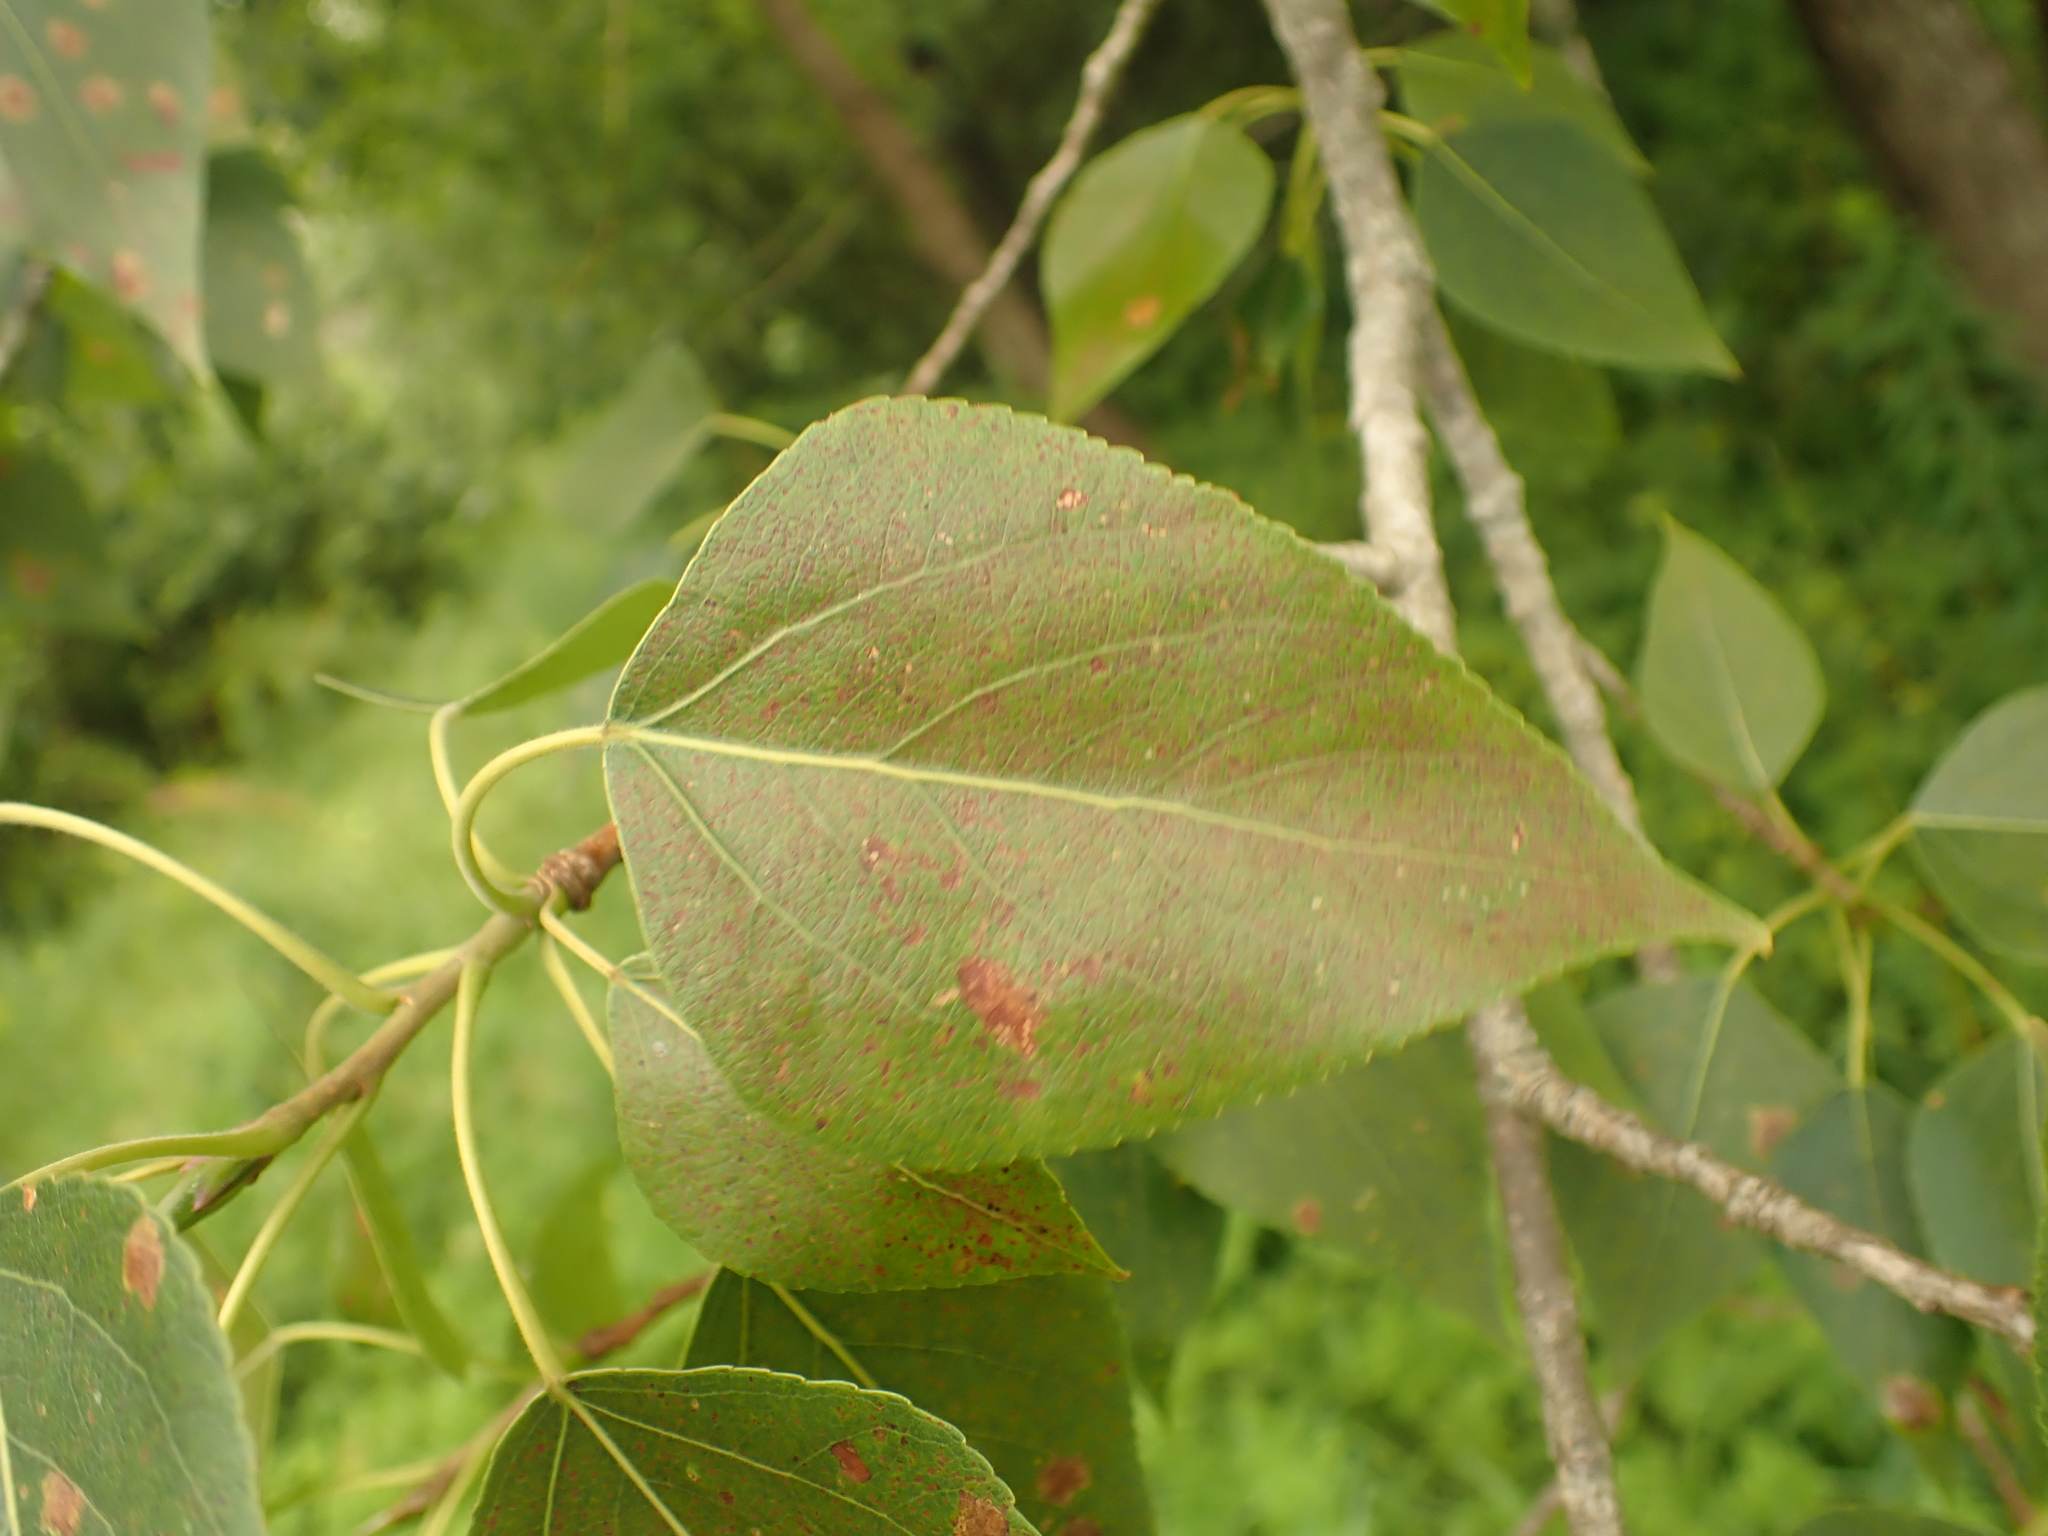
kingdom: Plantae
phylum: Tracheophyta
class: Magnoliopsida
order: Malpighiales
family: Salicaceae
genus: Populus
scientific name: Populus balsamifera
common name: Balsam poplar
